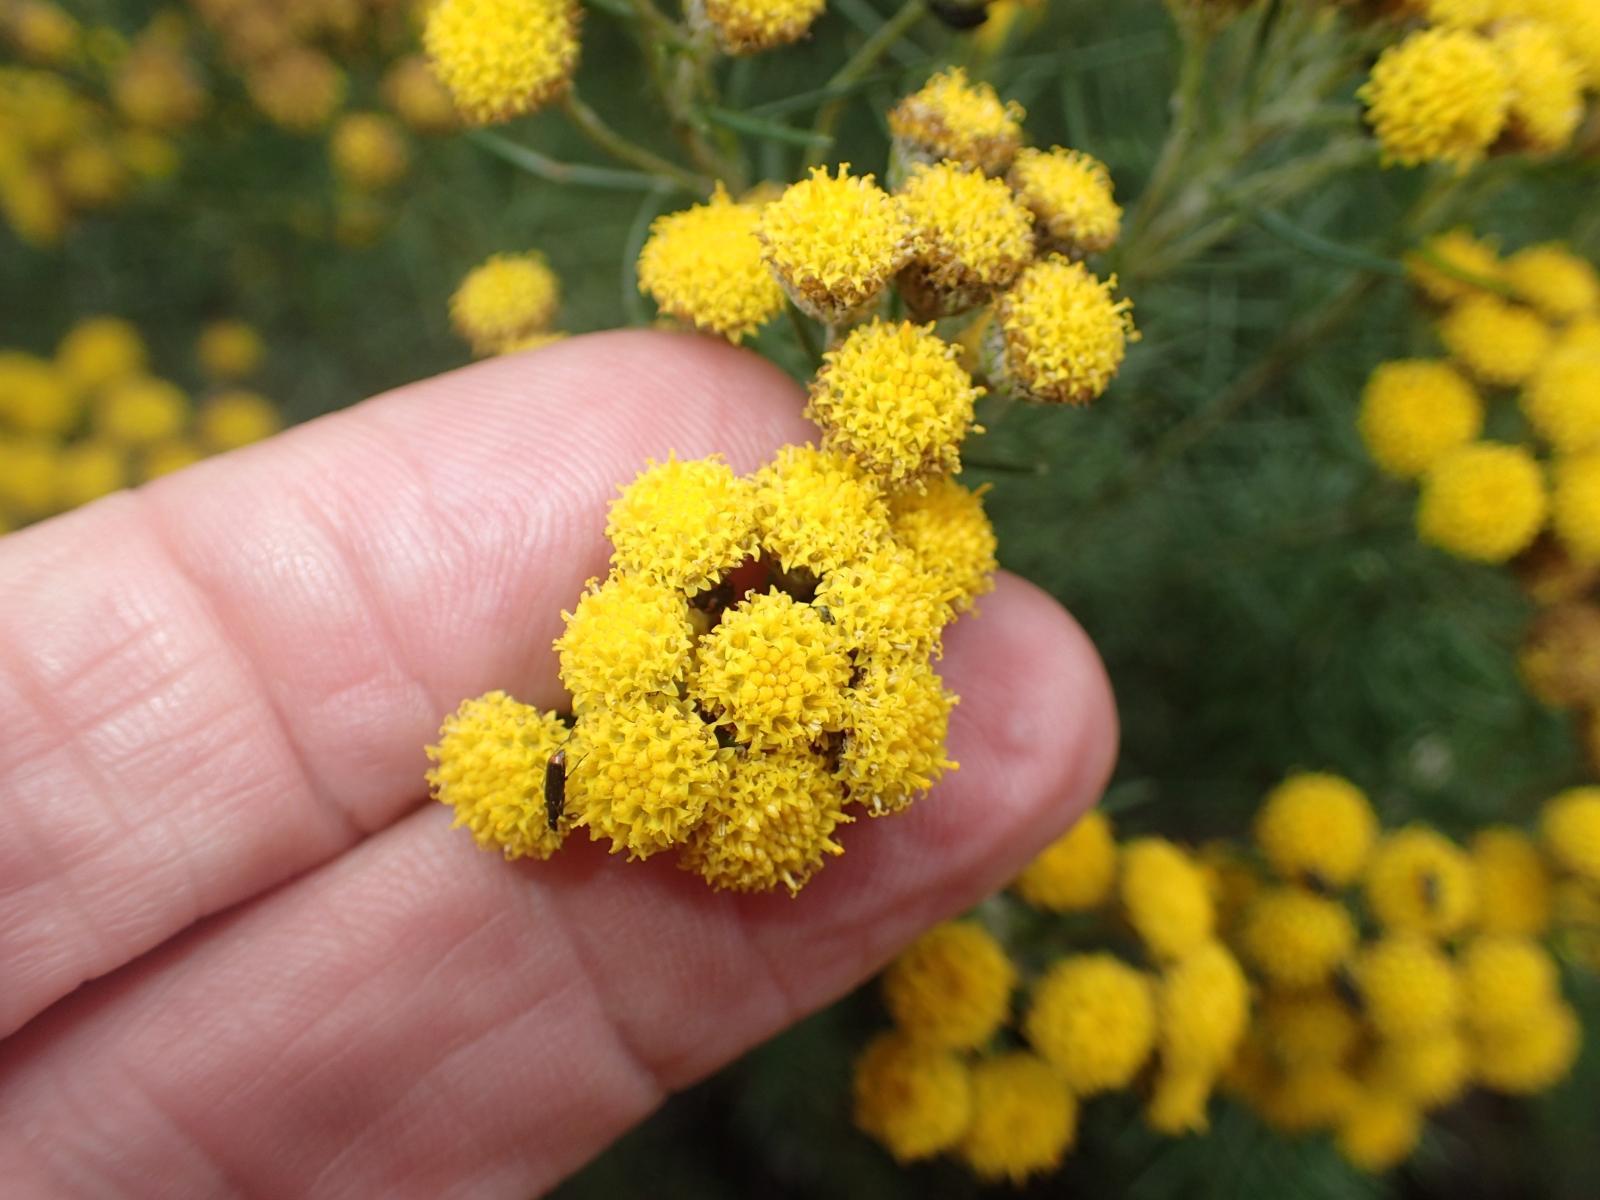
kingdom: Plantae
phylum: Tracheophyta
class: Magnoliopsida
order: Asterales
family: Asteraceae
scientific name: Asteraceae
